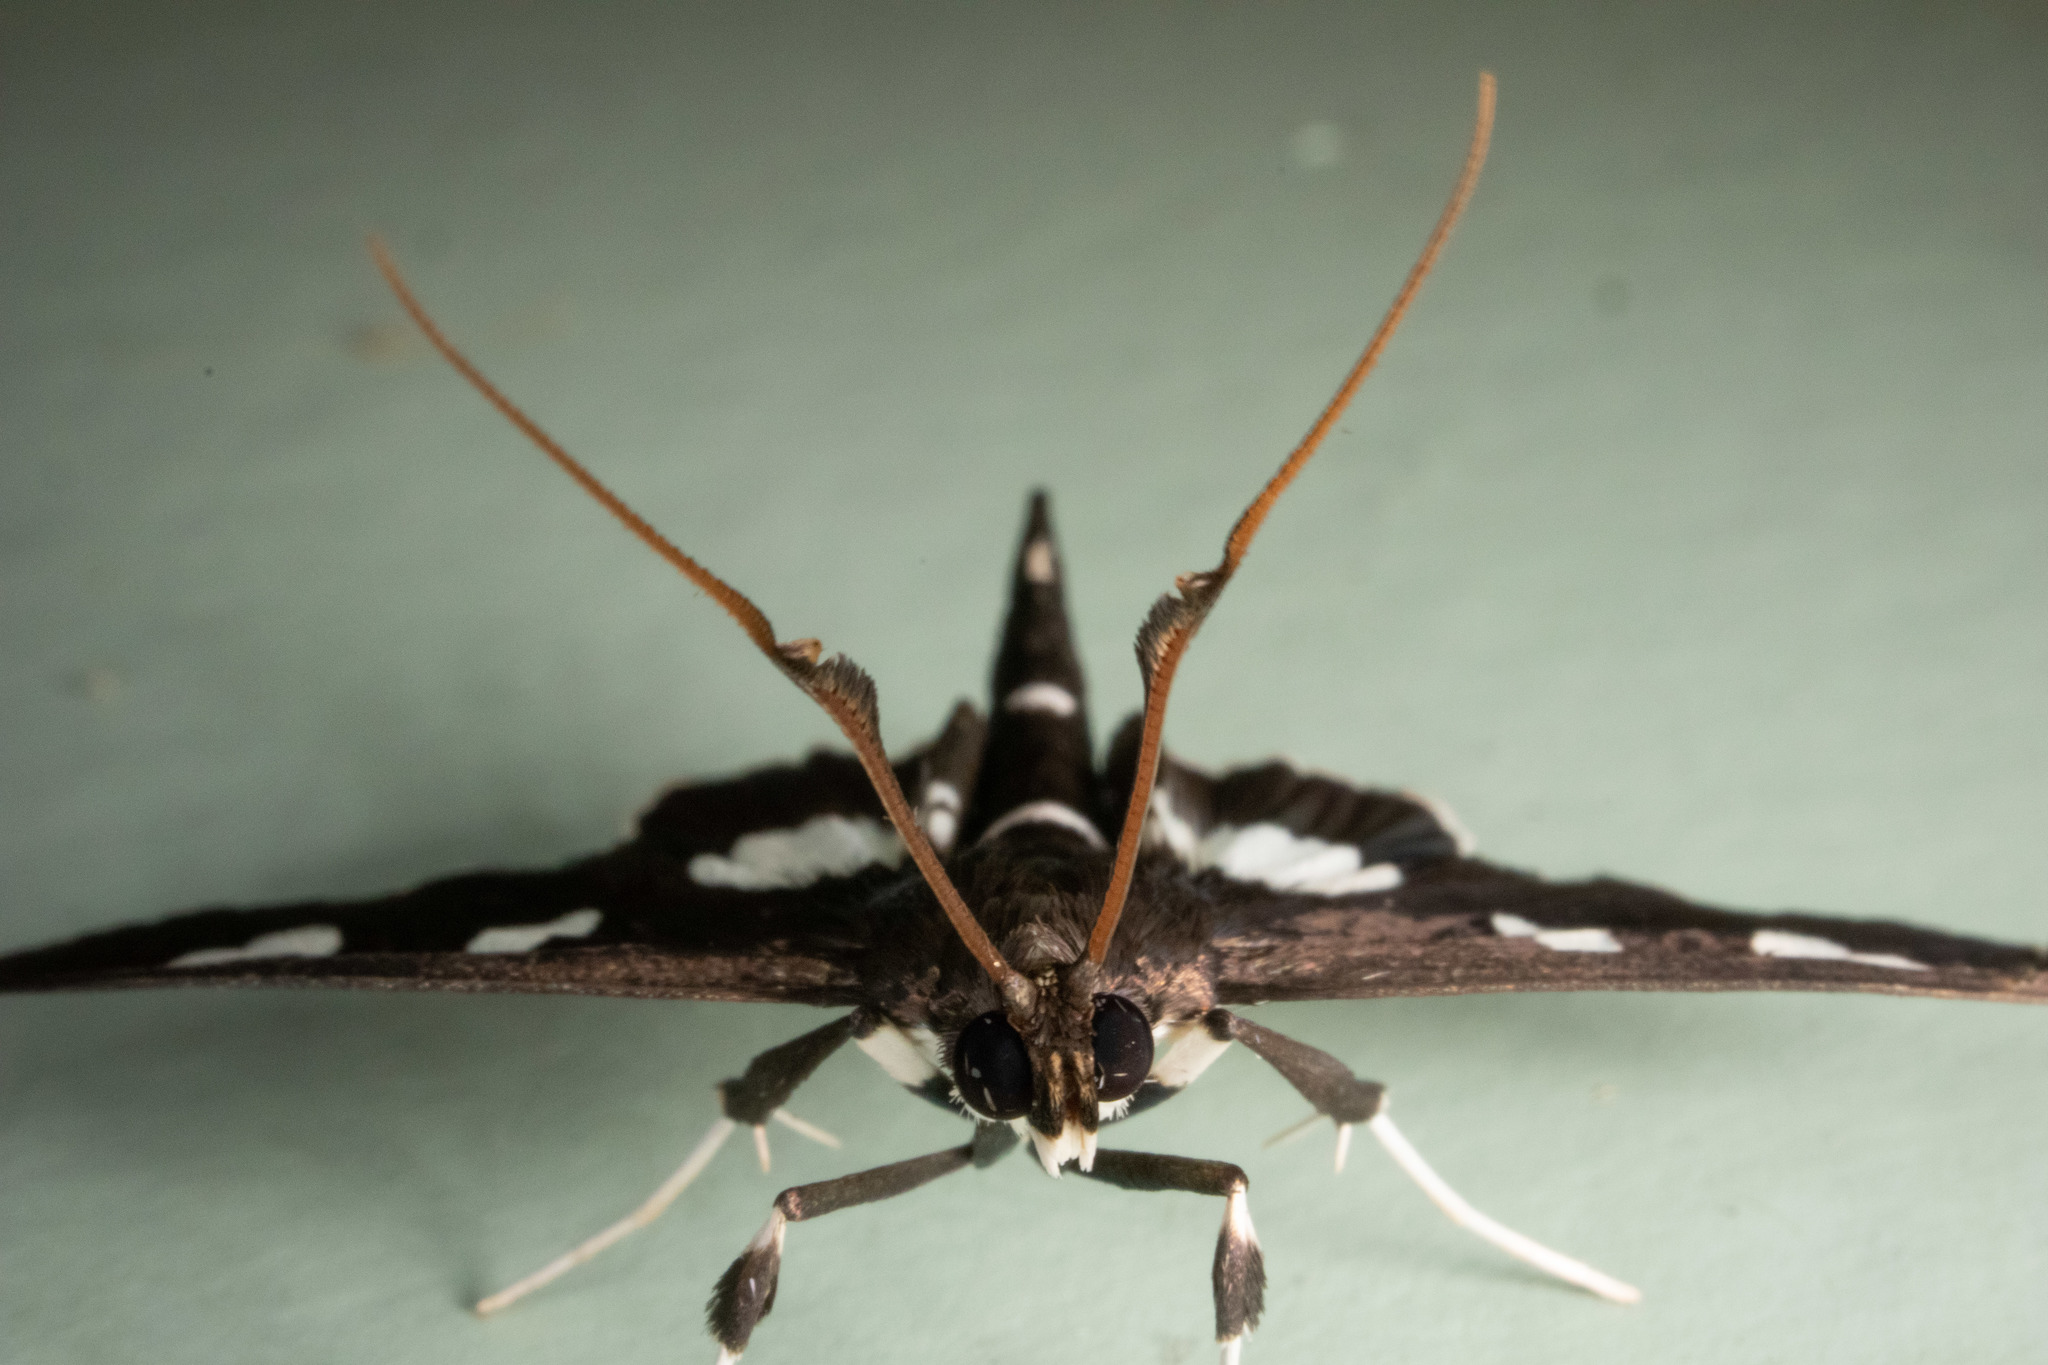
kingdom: Animalia
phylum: Arthropoda
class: Insecta
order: Lepidoptera
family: Crambidae
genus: Desmia
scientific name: Desmia
